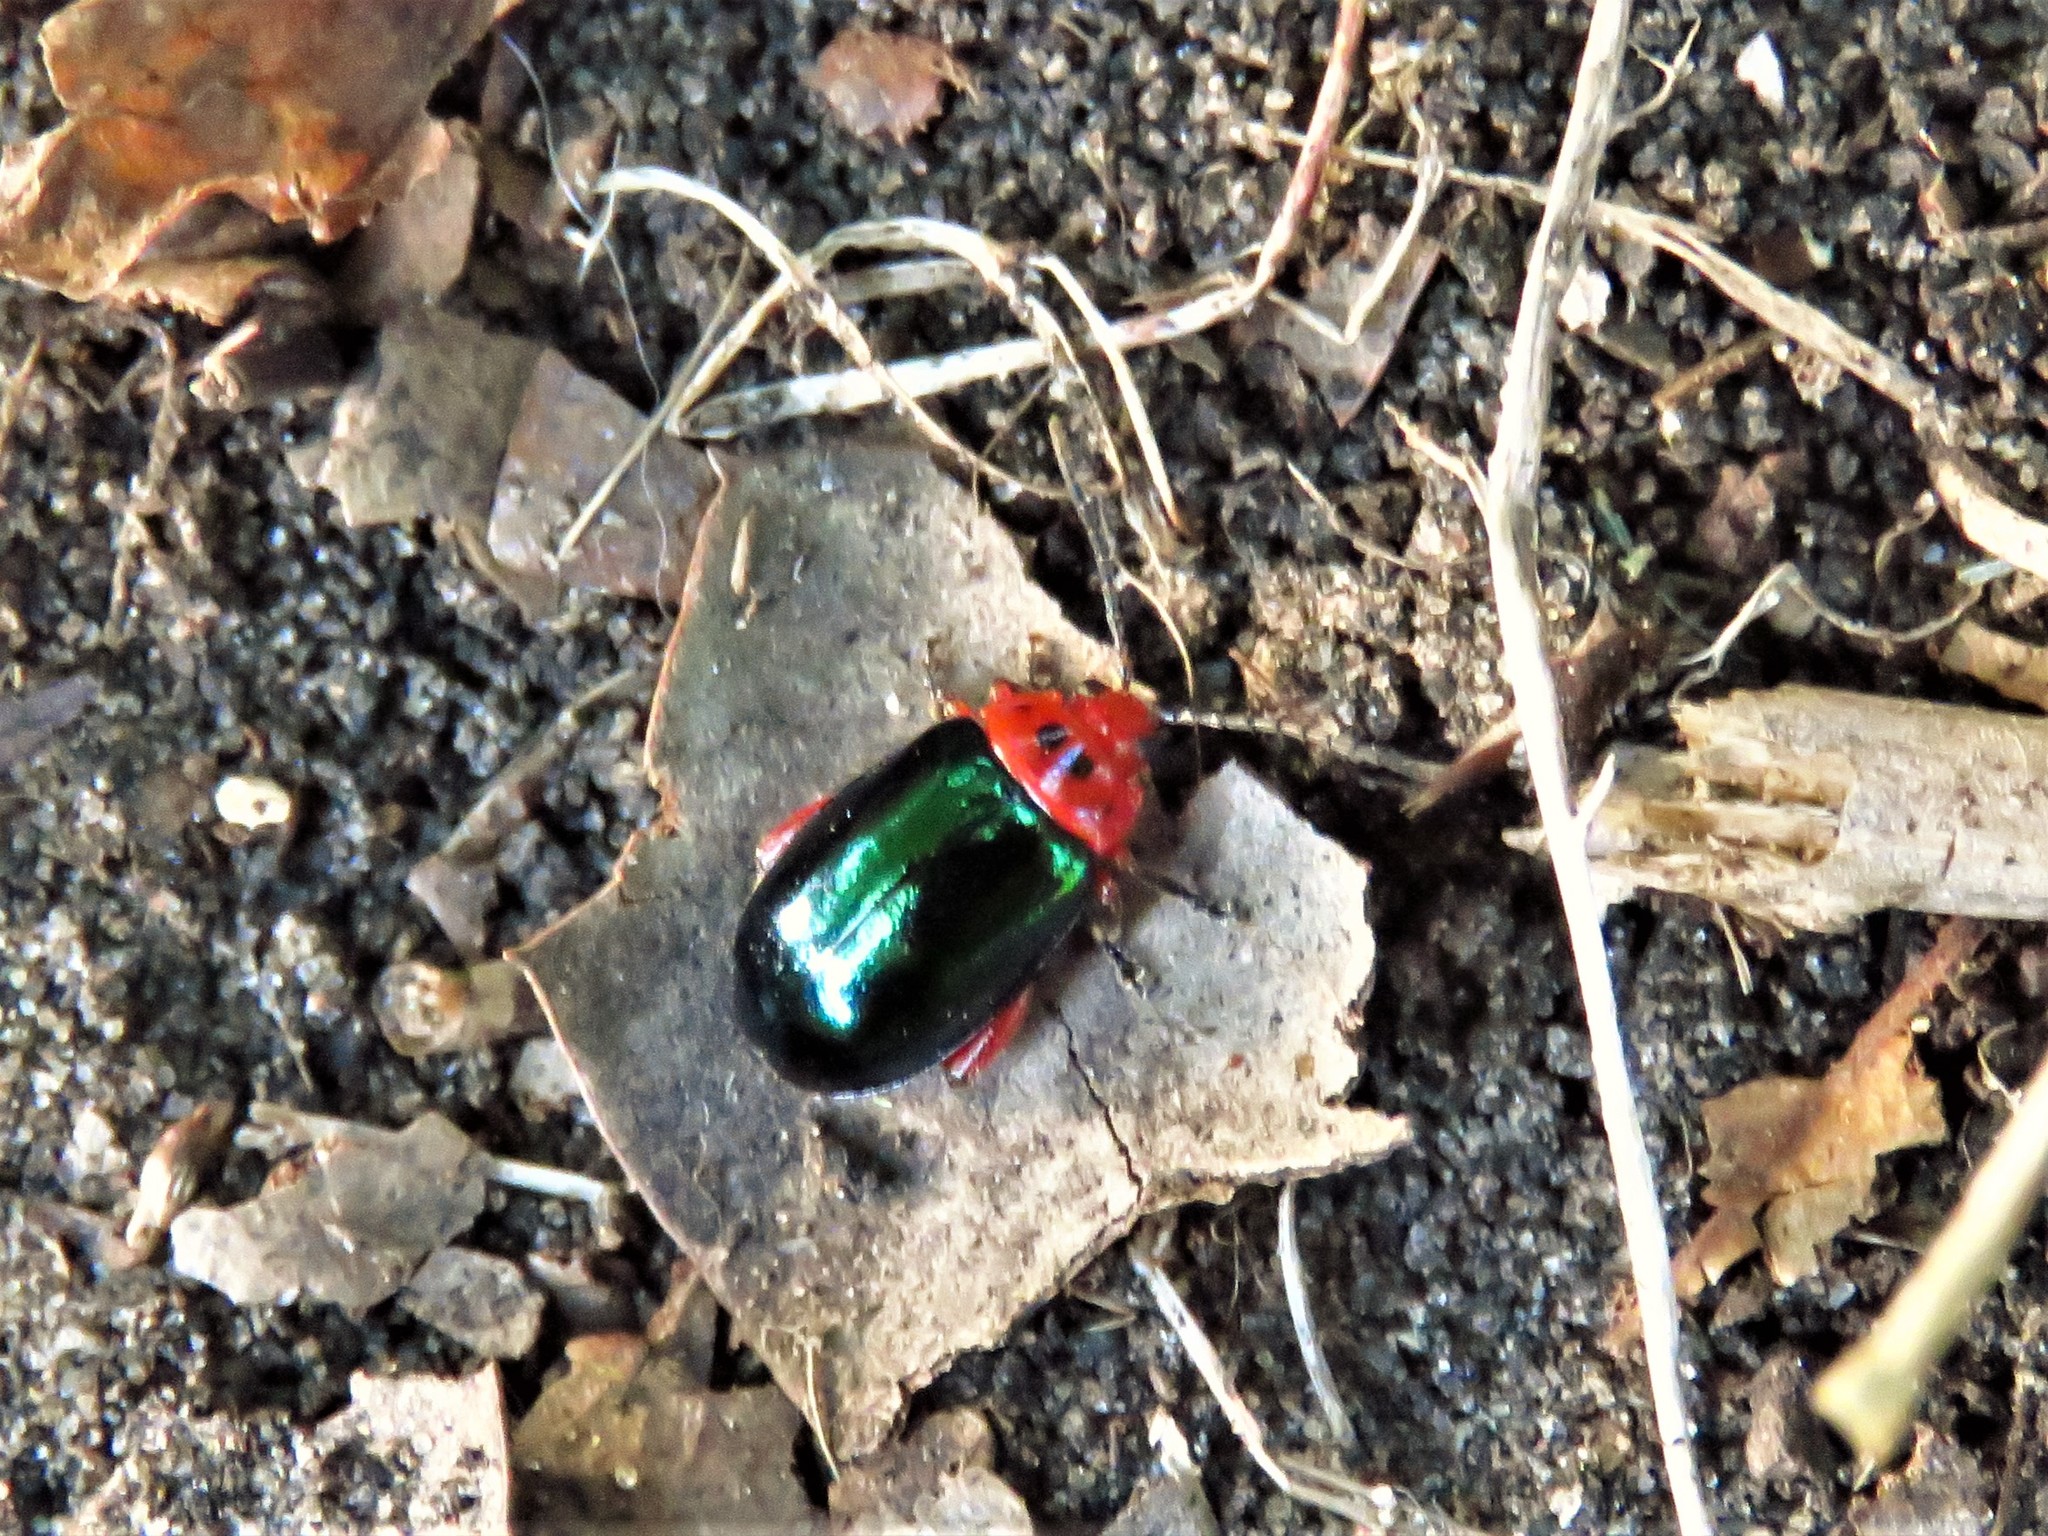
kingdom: Animalia
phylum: Arthropoda
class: Insecta
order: Coleoptera
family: Chrysomelidae
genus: Kuschelina
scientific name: Kuschelina gibbitarsa
